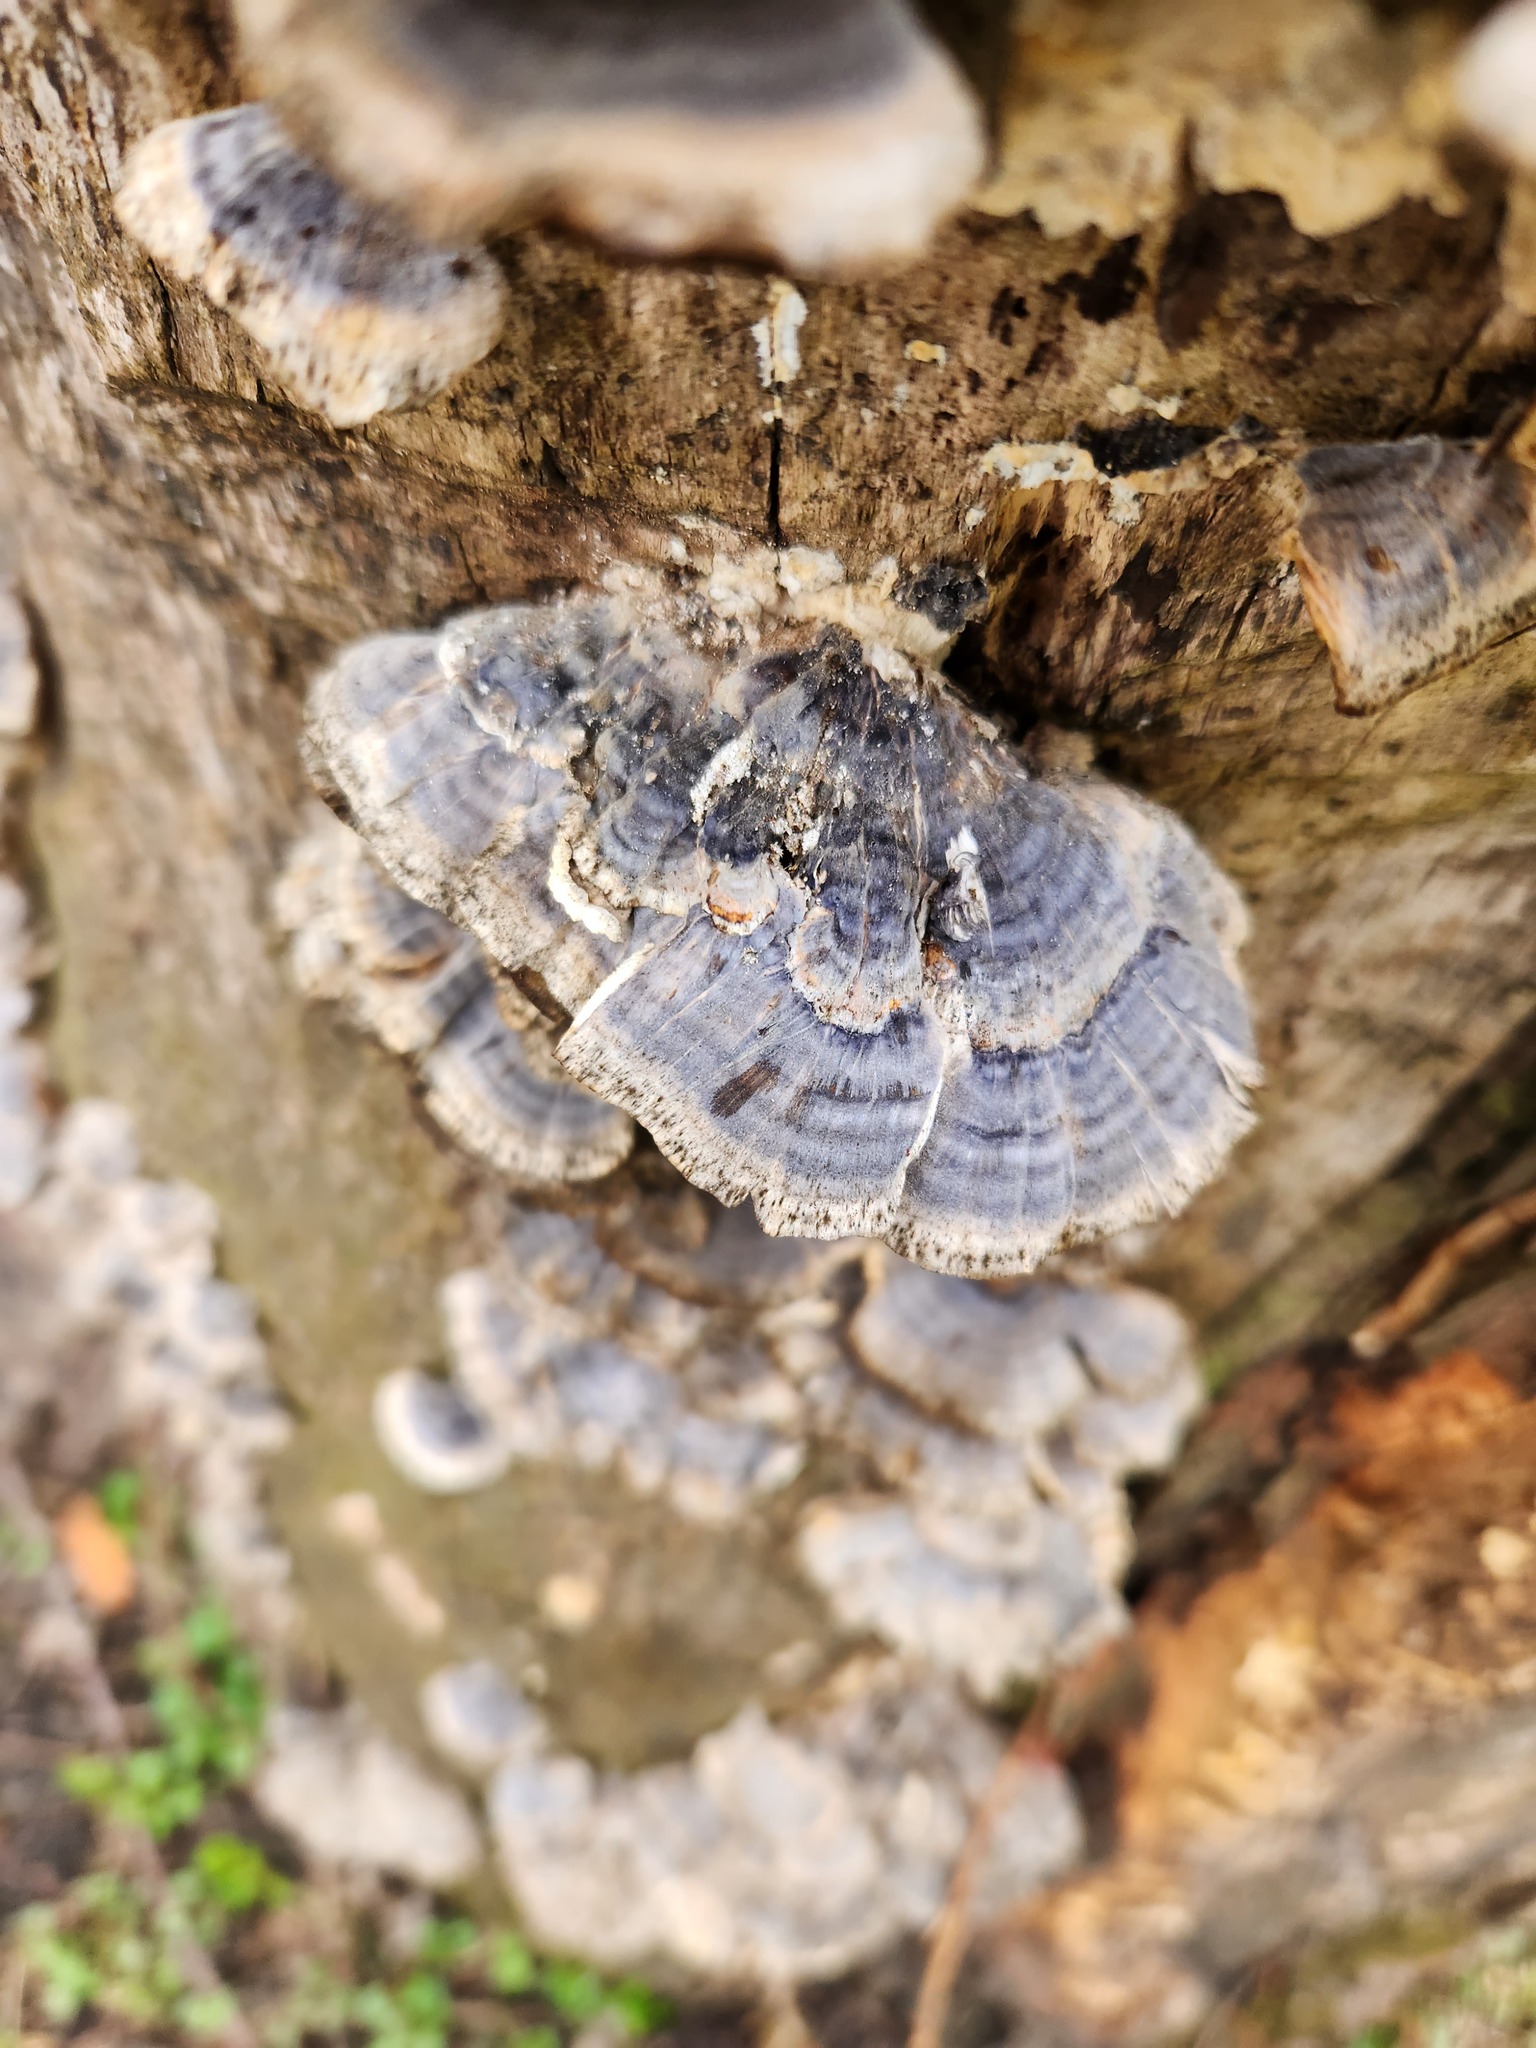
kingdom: Fungi
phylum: Basidiomycota
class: Agaricomycetes
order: Polyporales
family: Polyporaceae
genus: Trametes
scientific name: Trametes versicolor
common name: Turkeytail
